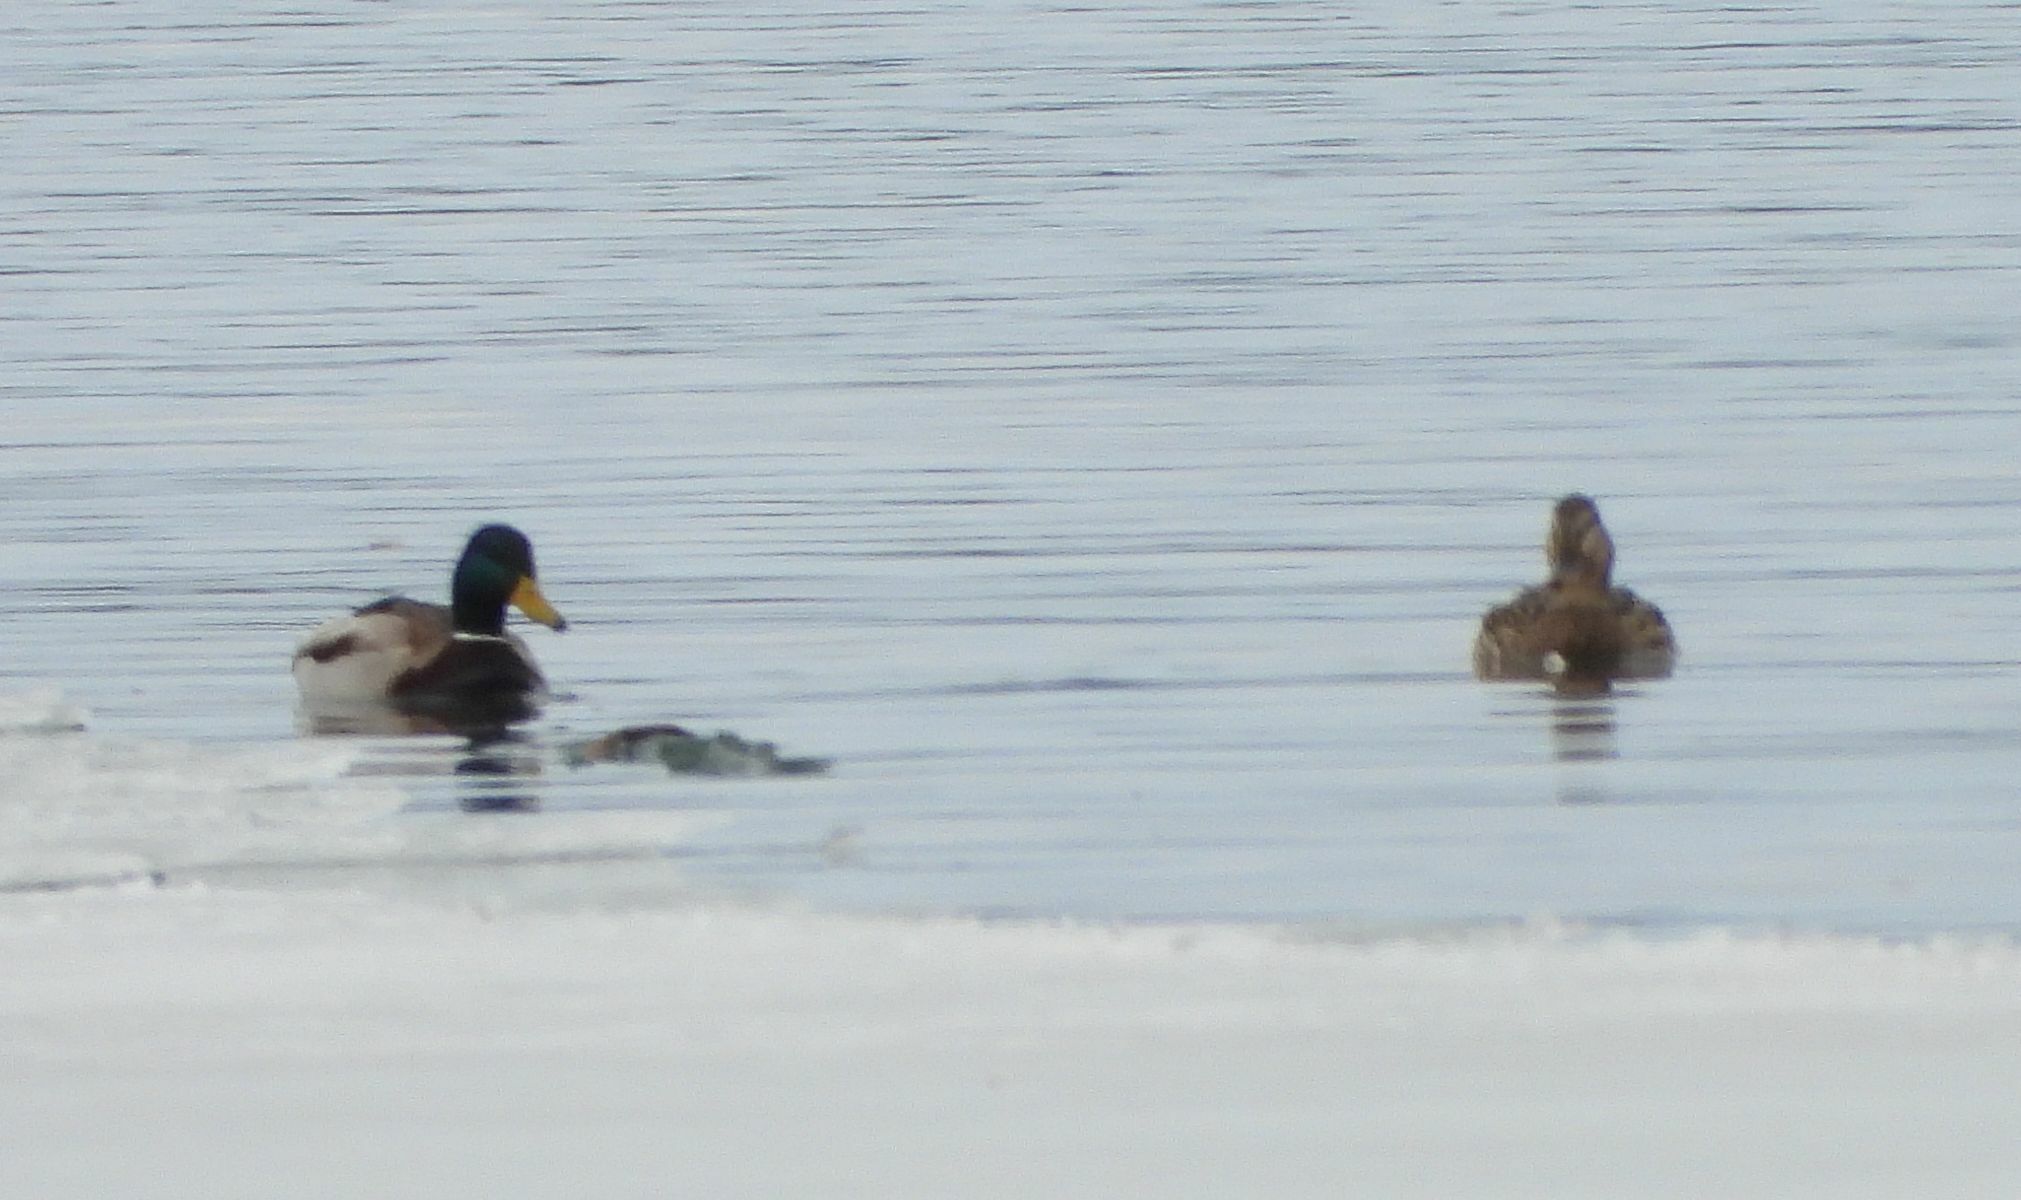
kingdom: Animalia
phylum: Chordata
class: Aves
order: Anseriformes
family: Anatidae
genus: Anas
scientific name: Anas platyrhynchos
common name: Mallard
